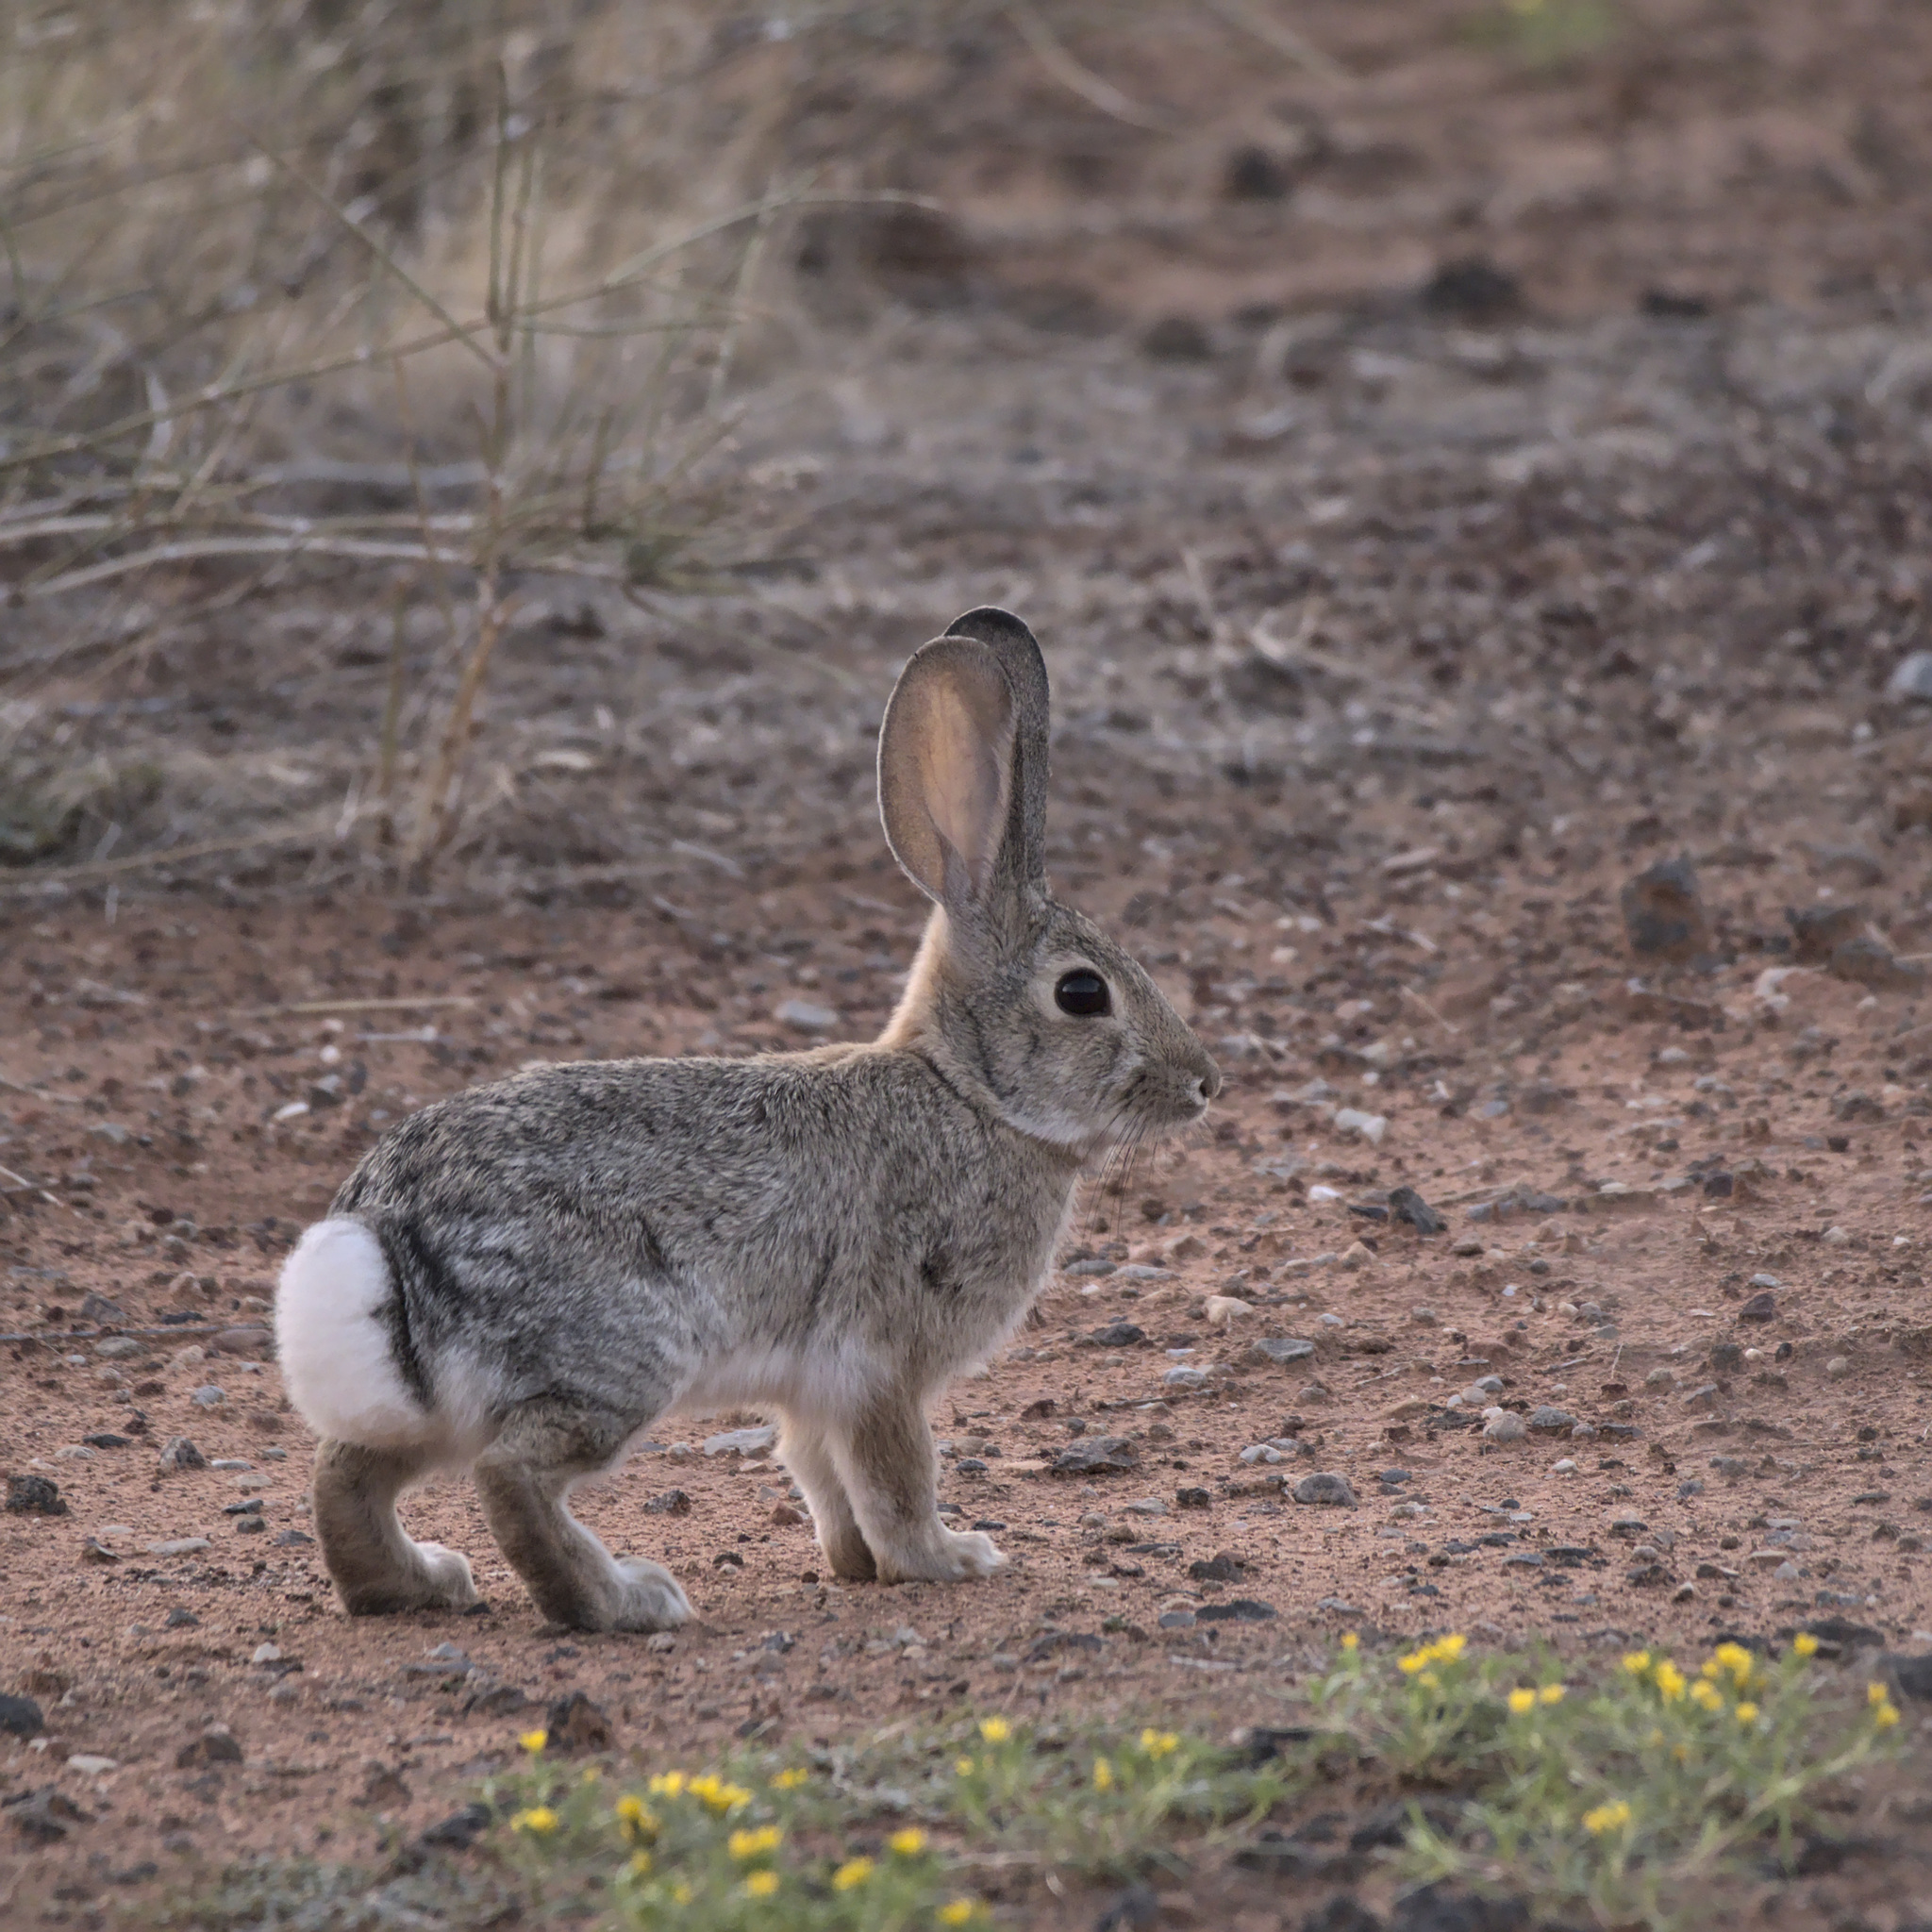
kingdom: Animalia
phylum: Chordata
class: Mammalia
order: Lagomorpha
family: Leporidae
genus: Sylvilagus
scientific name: Sylvilagus audubonii
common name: Desert cottontail
